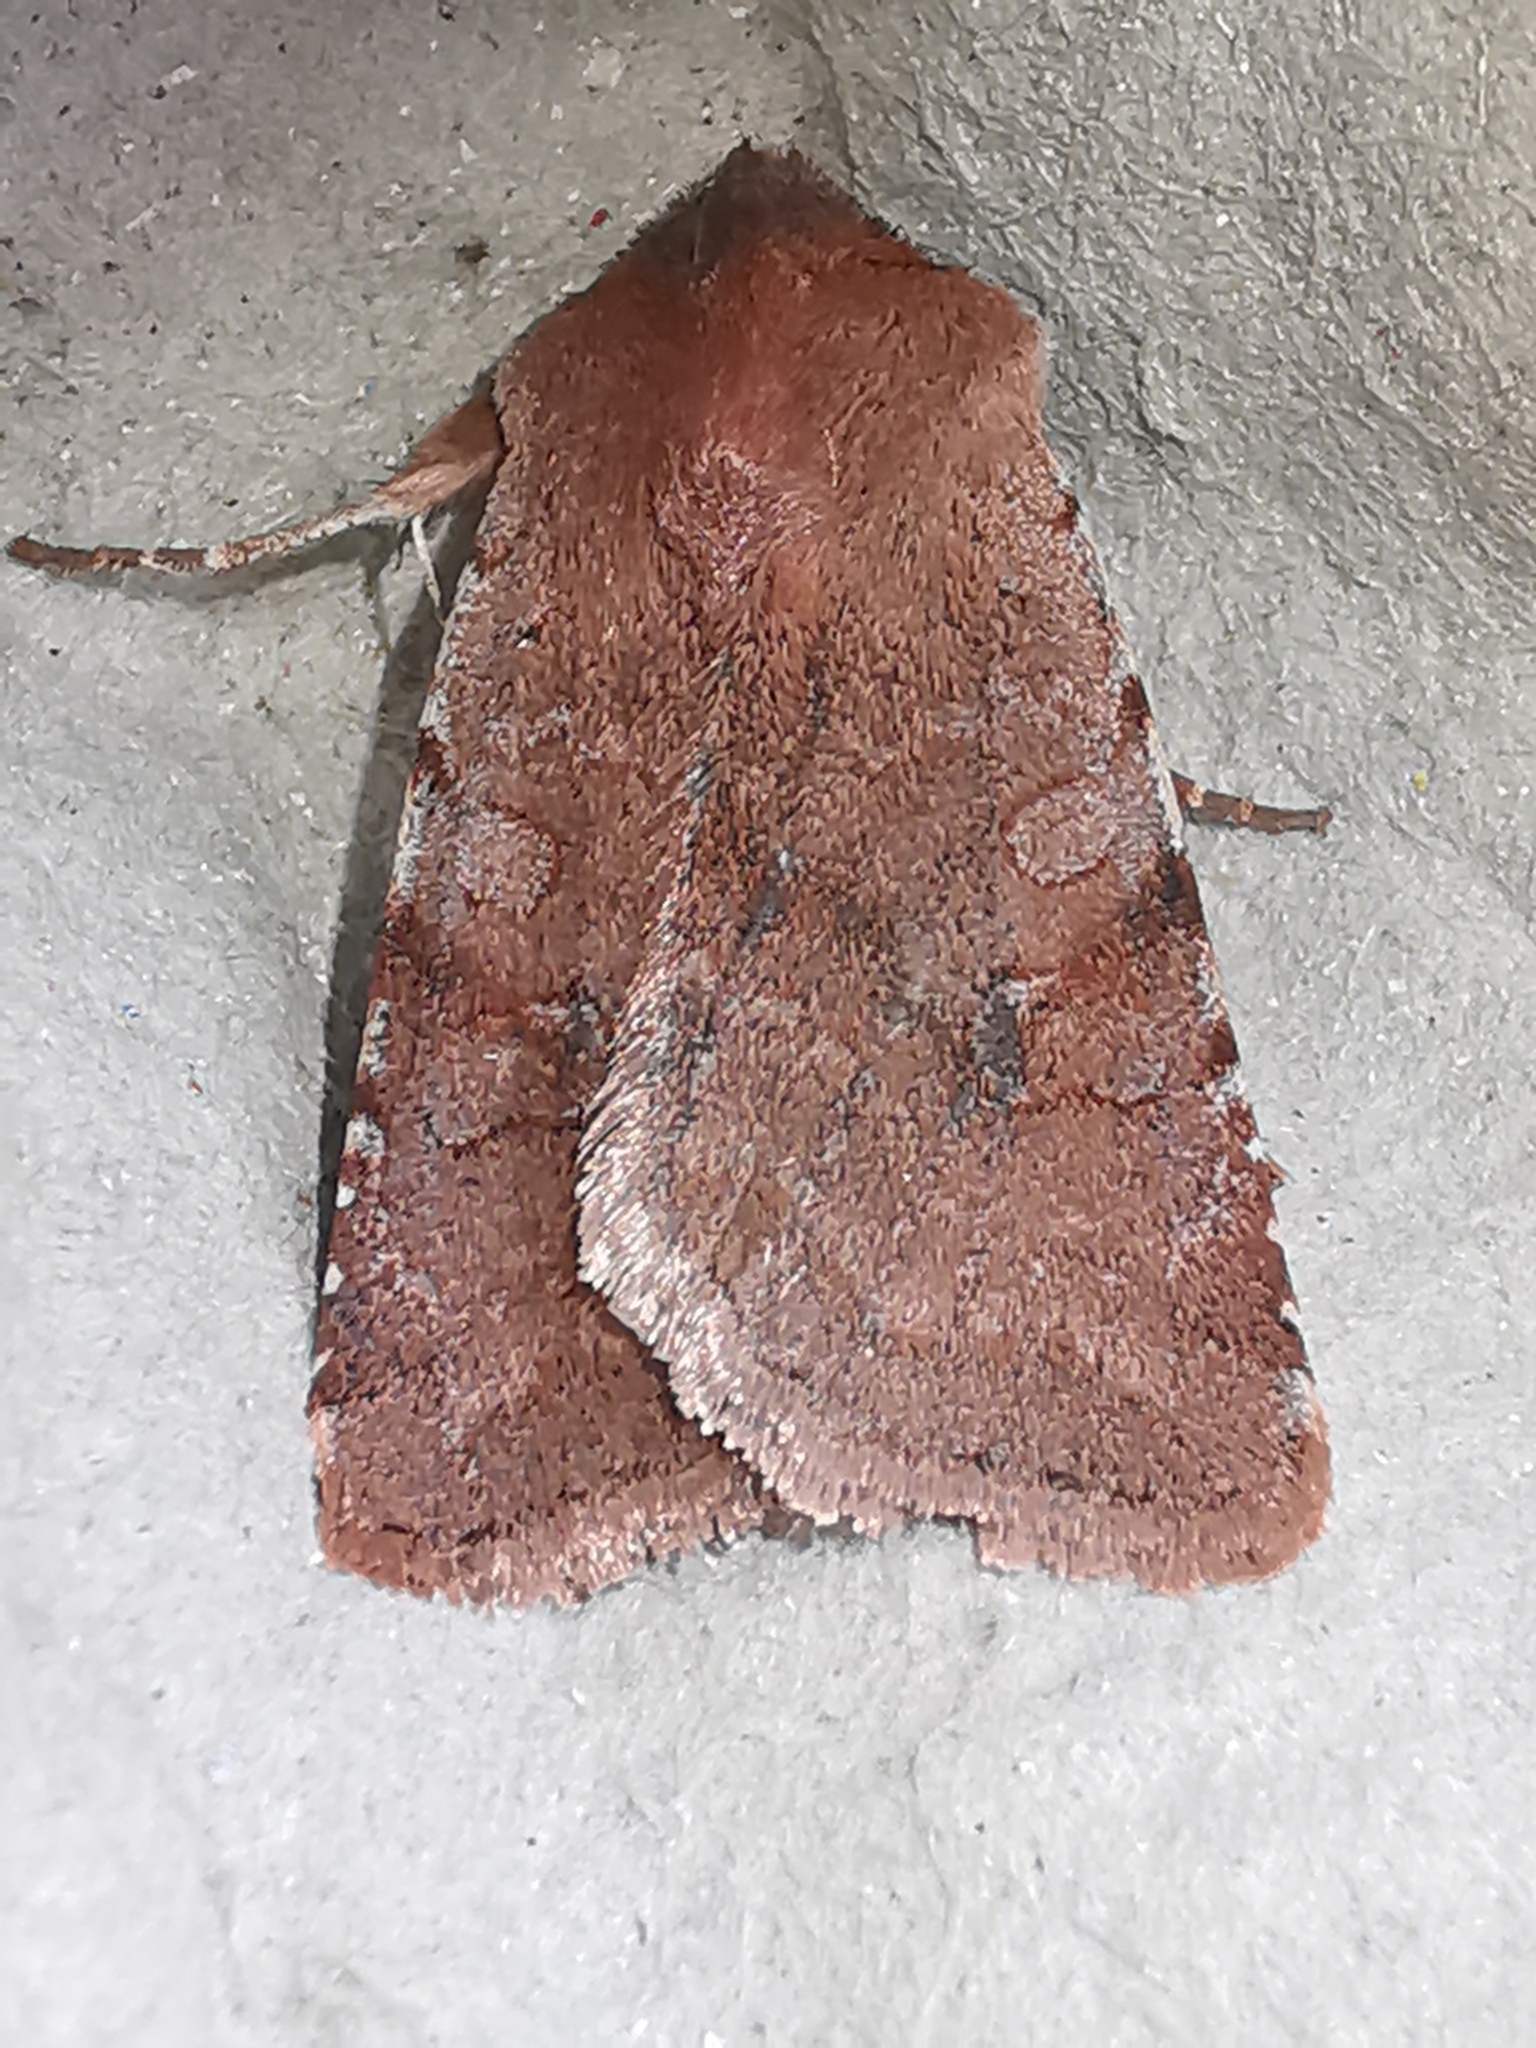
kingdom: Animalia
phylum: Arthropoda
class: Insecta
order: Lepidoptera
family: Noctuidae
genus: Cerastis
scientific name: Cerastis rubricosa
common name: Red chestnut
